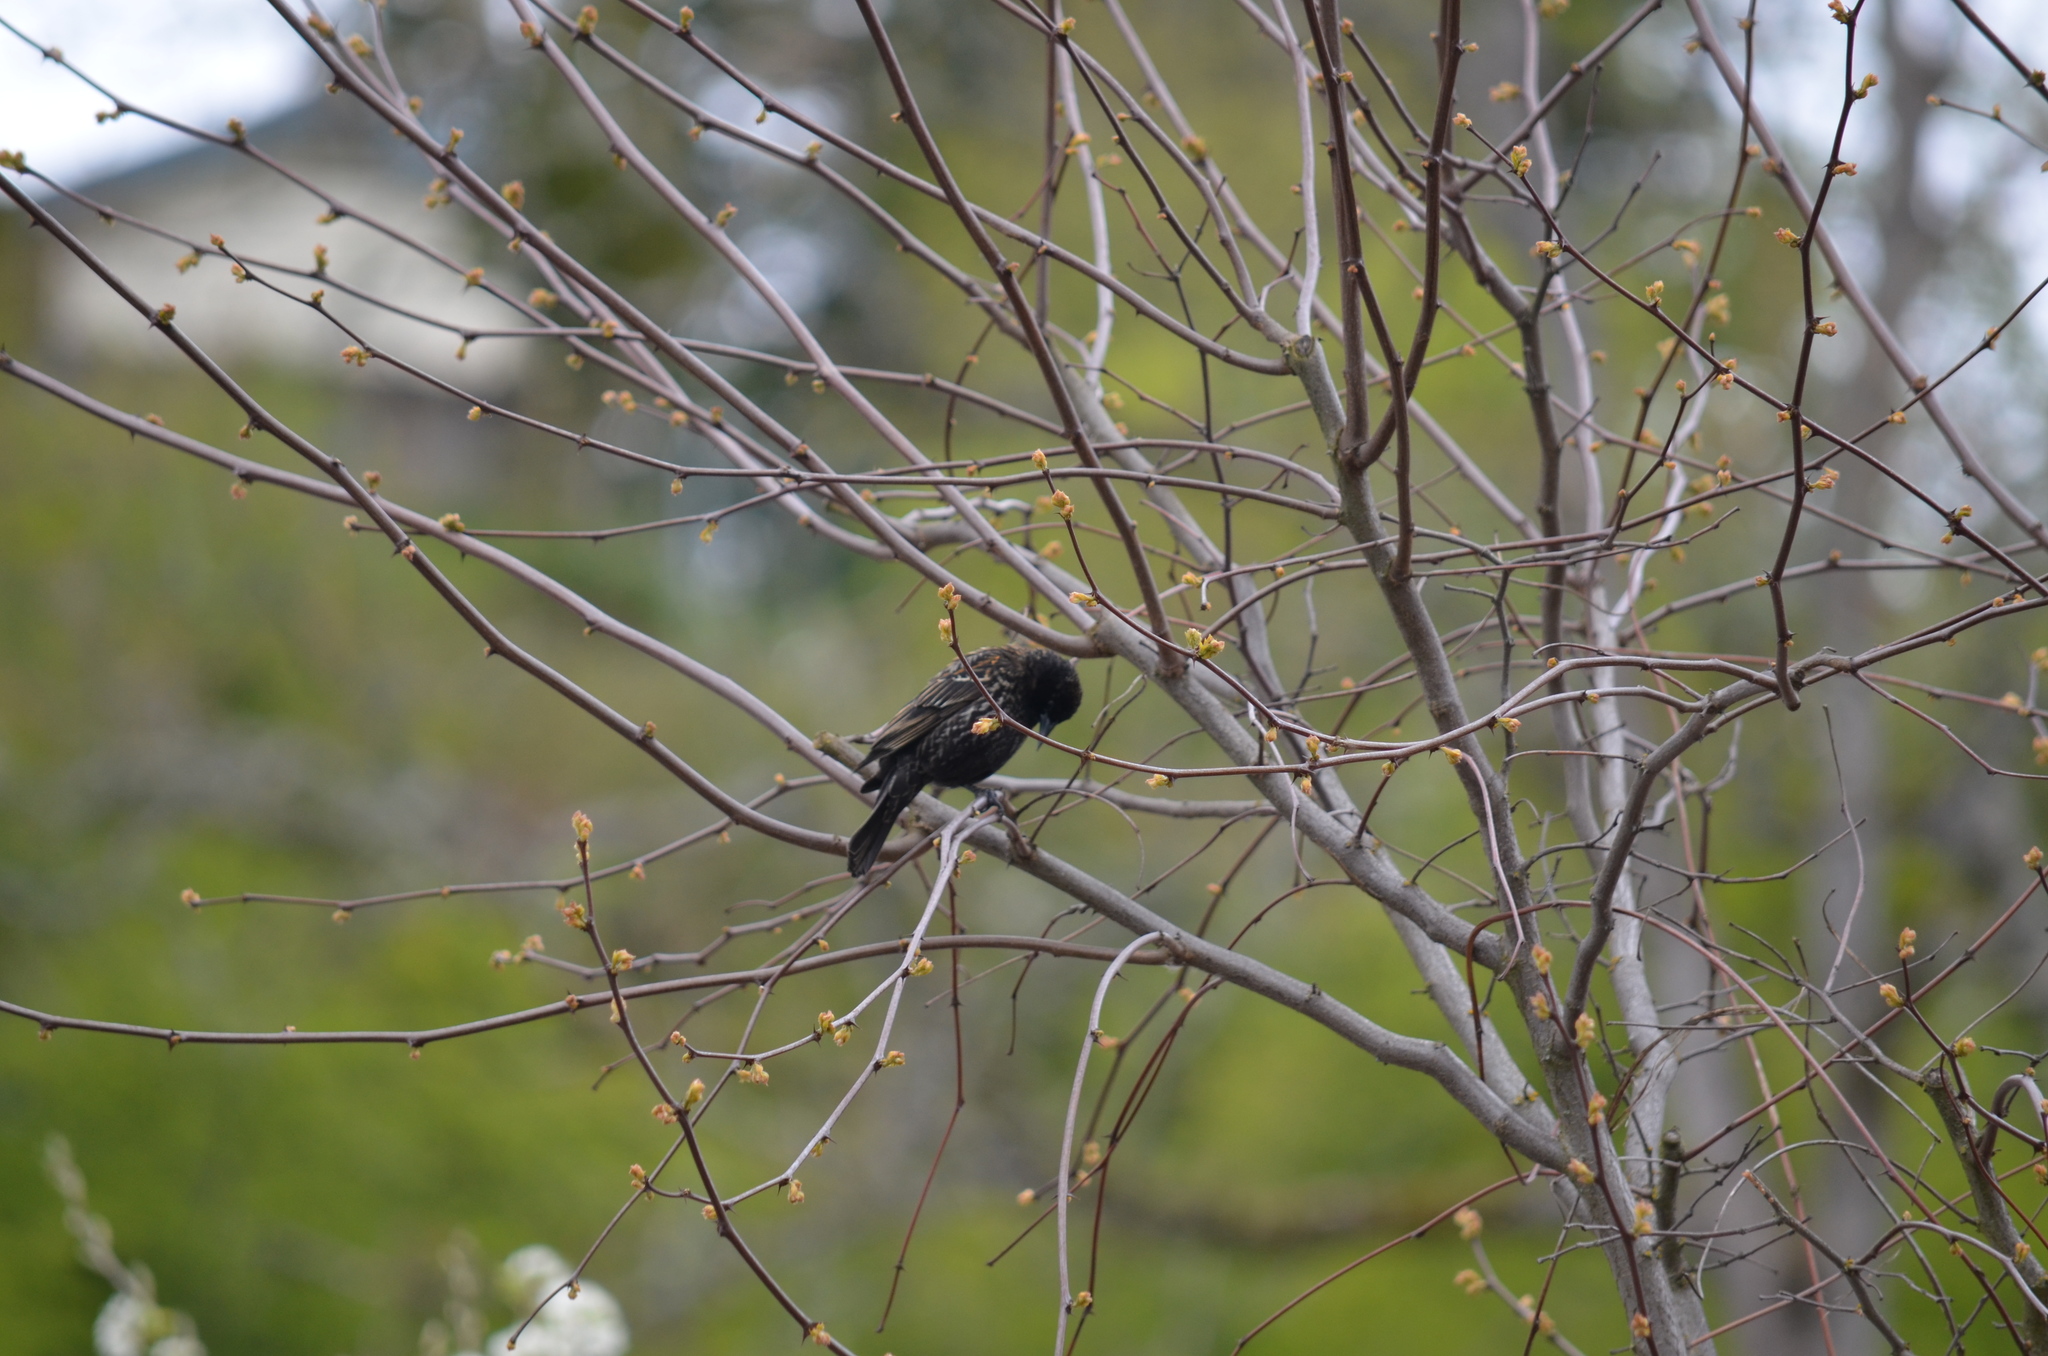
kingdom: Animalia
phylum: Chordata
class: Aves
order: Passeriformes
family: Icteridae
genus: Agelaius
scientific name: Agelaius phoeniceus
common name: Red-winged blackbird
